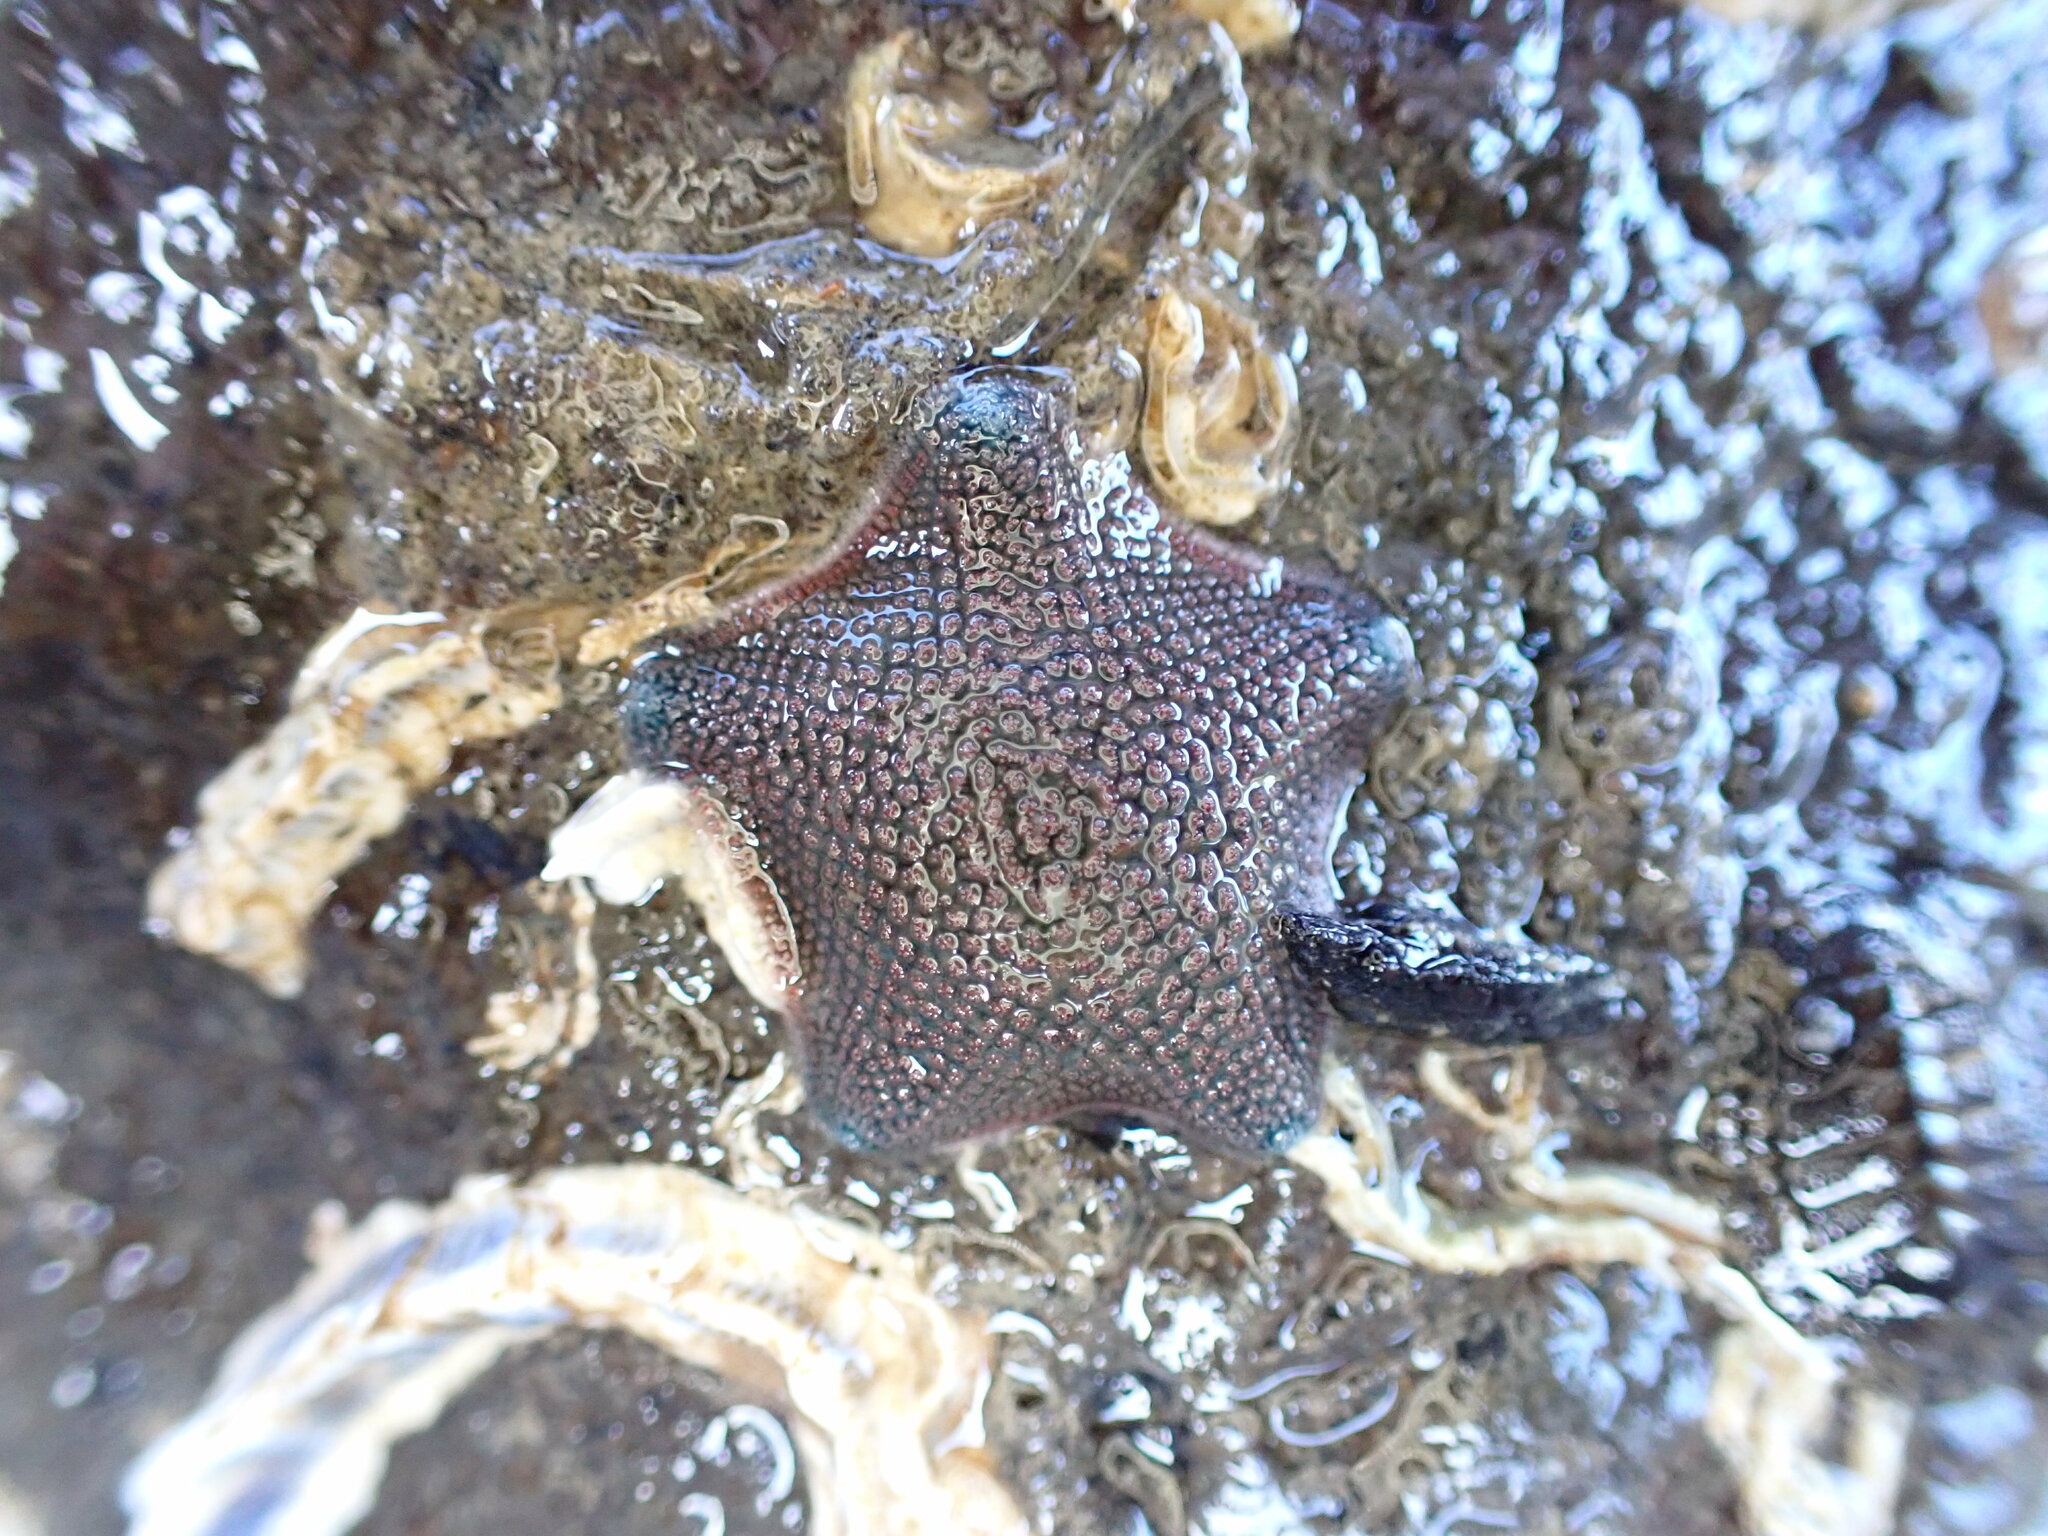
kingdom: Animalia
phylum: Echinodermata
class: Asteroidea
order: Valvatida
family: Asterinidae
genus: Patiriella
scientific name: Patiriella regularis
